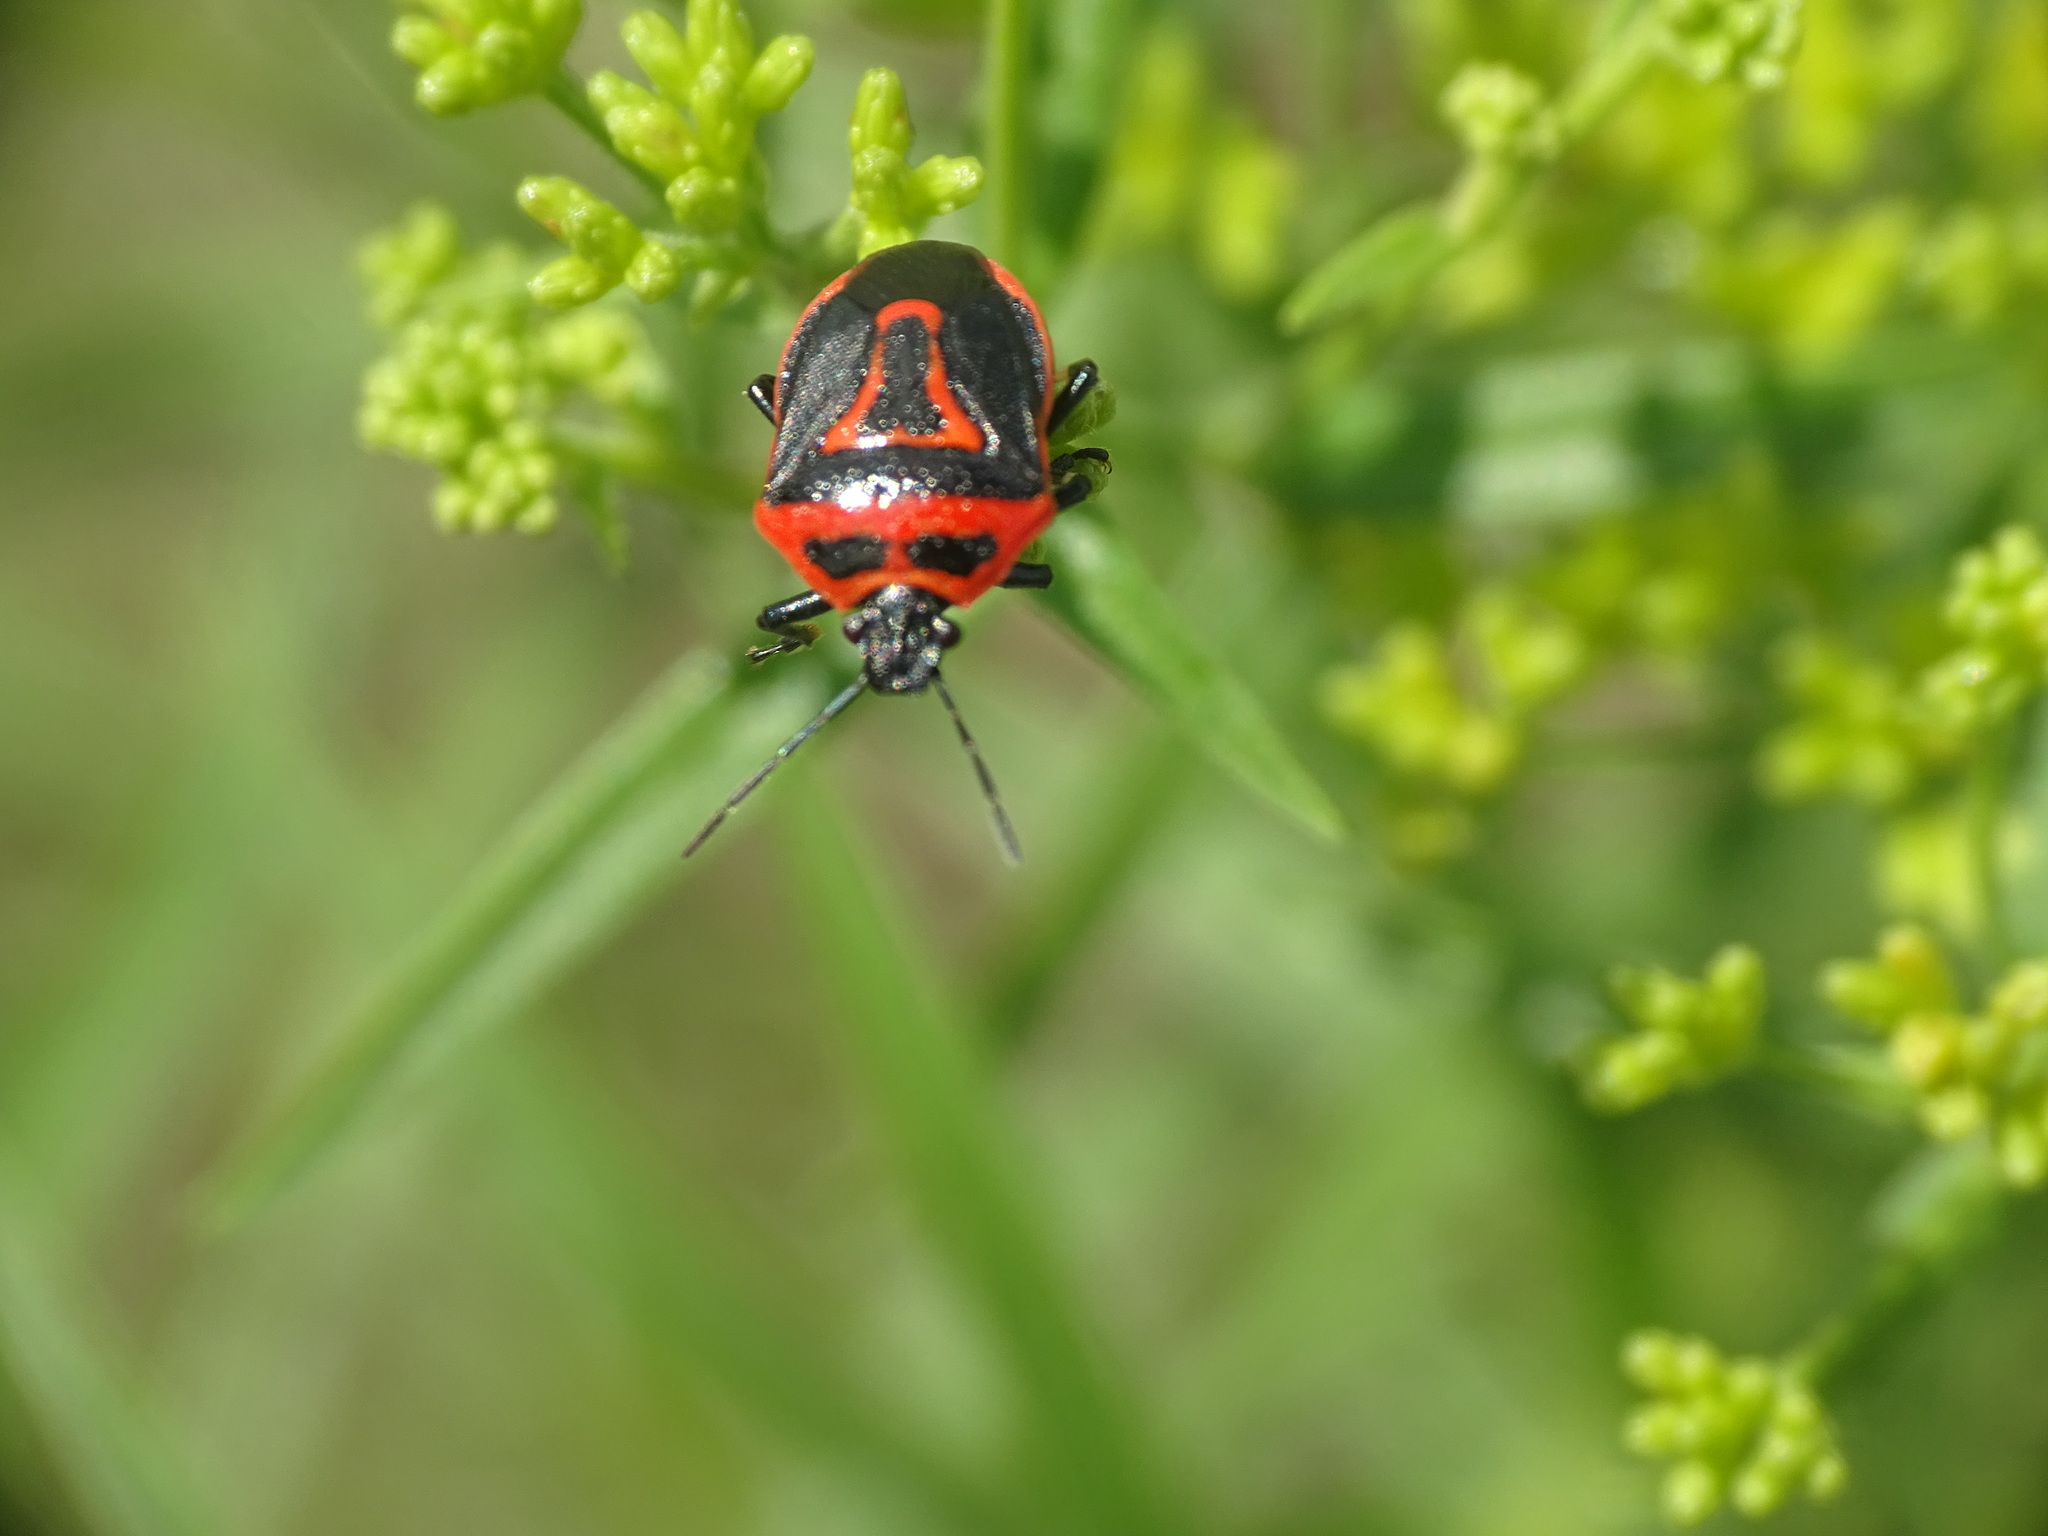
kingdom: Animalia
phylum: Arthropoda
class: Insecta
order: Hemiptera
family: Pentatomidae
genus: Perillus
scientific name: Perillus bioculatus
